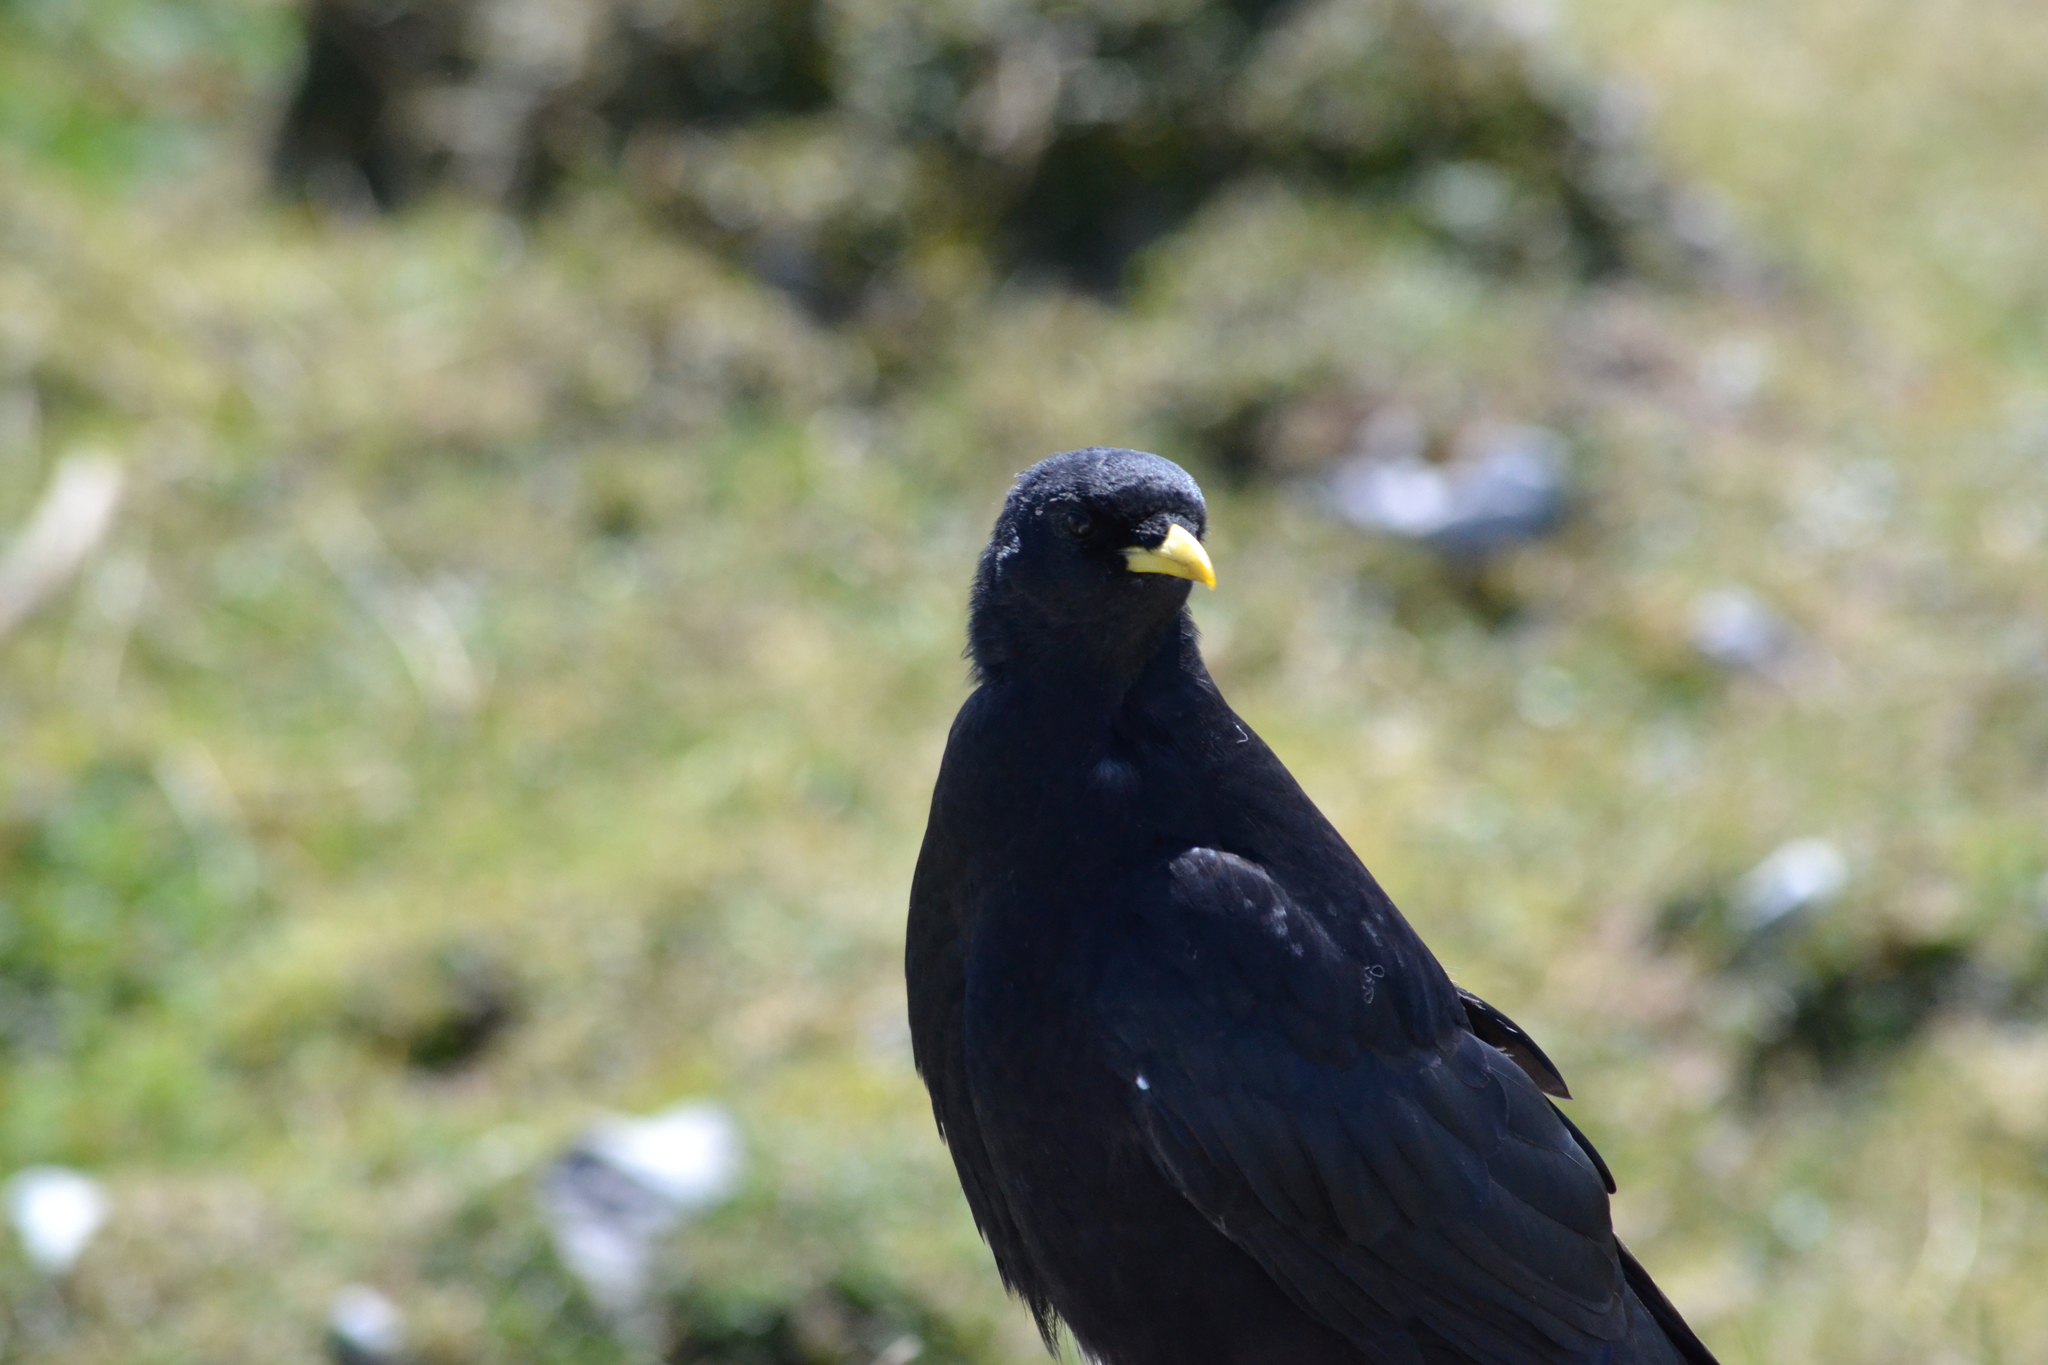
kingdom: Animalia
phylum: Chordata
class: Aves
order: Passeriformes
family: Corvidae
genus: Pyrrhocorax
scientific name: Pyrrhocorax graculus
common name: Alpine chough
